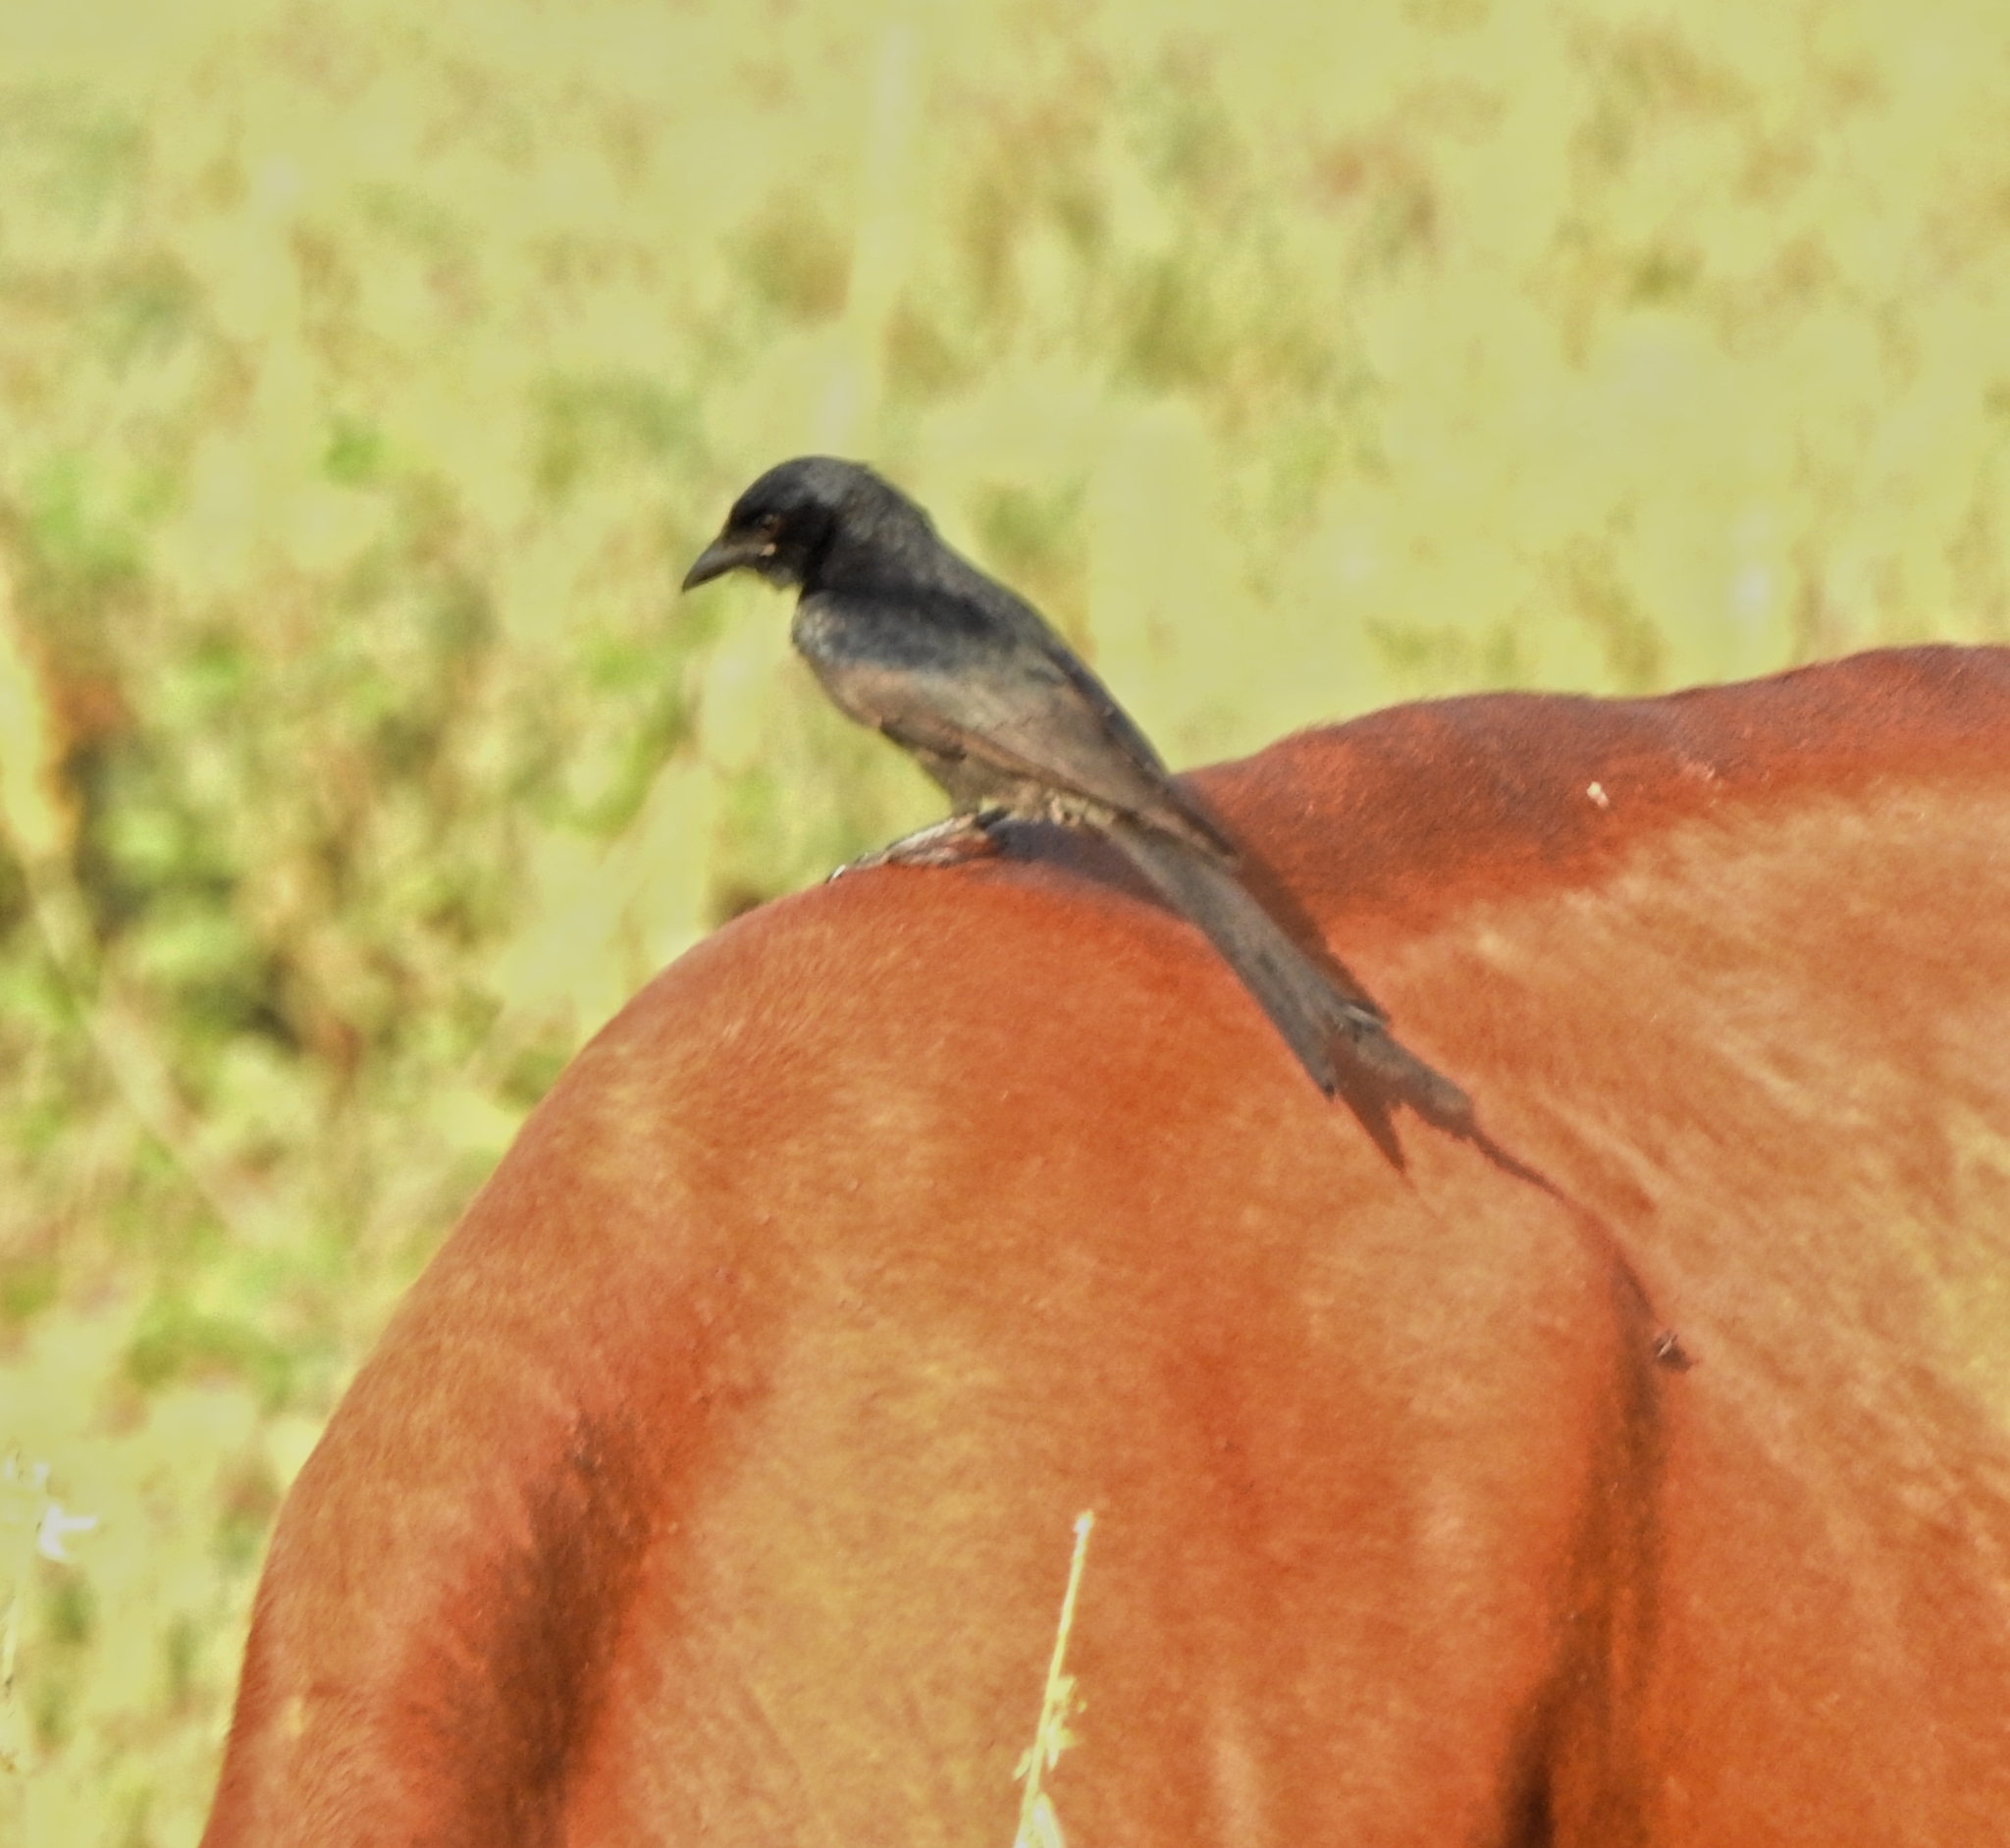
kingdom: Animalia
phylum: Chordata
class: Aves
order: Passeriformes
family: Dicruridae
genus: Dicrurus
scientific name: Dicrurus macrocercus
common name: Black drongo
